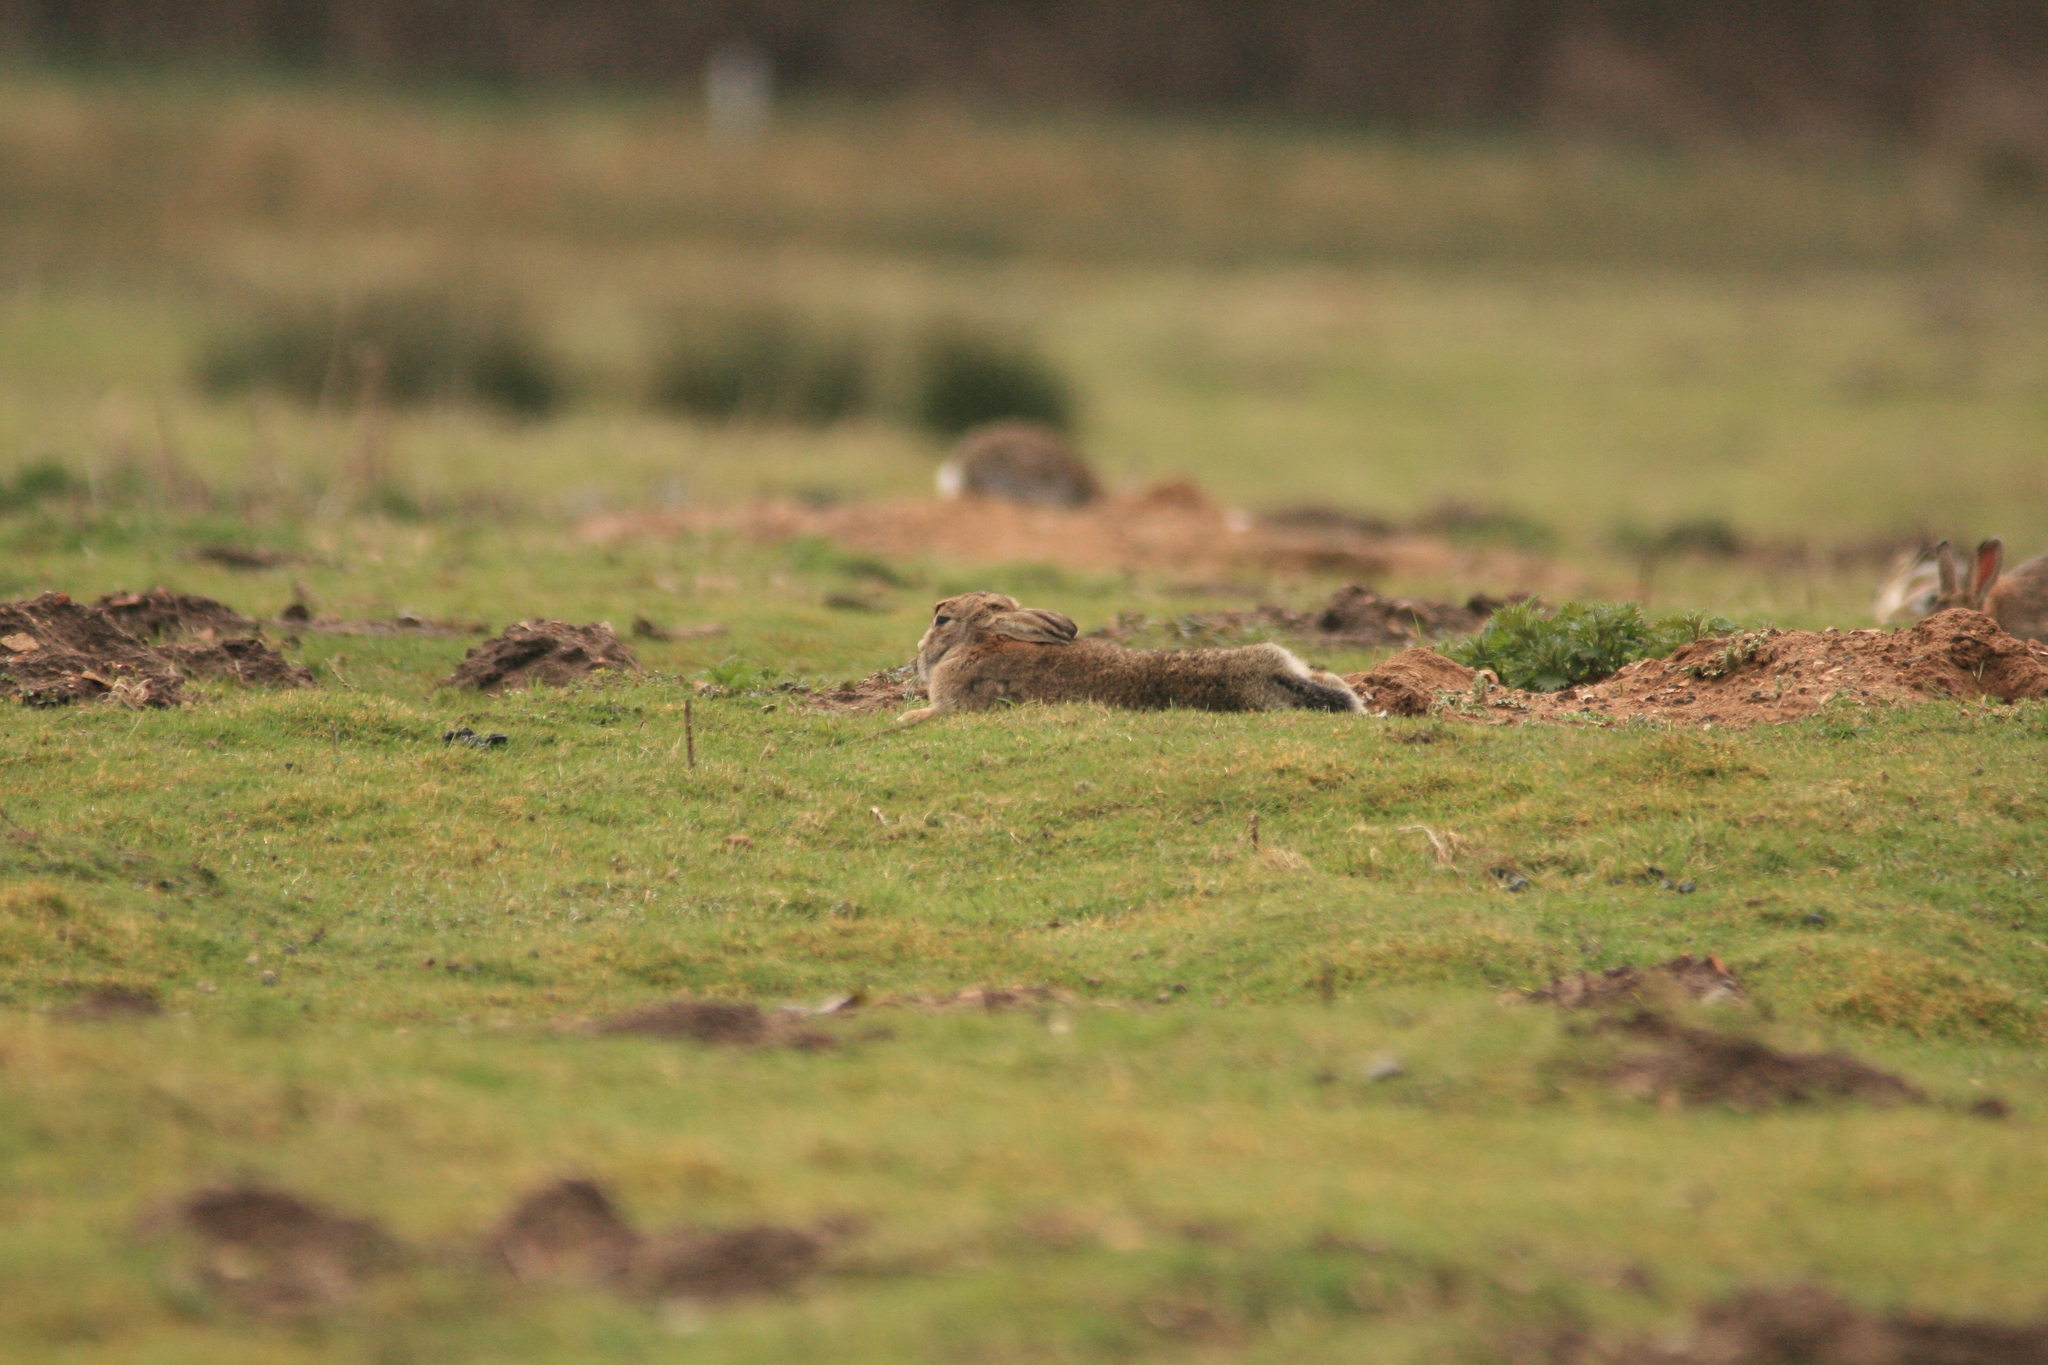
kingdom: Animalia
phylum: Chordata
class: Mammalia
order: Lagomorpha
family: Leporidae
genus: Oryctolagus
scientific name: Oryctolagus cuniculus
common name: European rabbit
